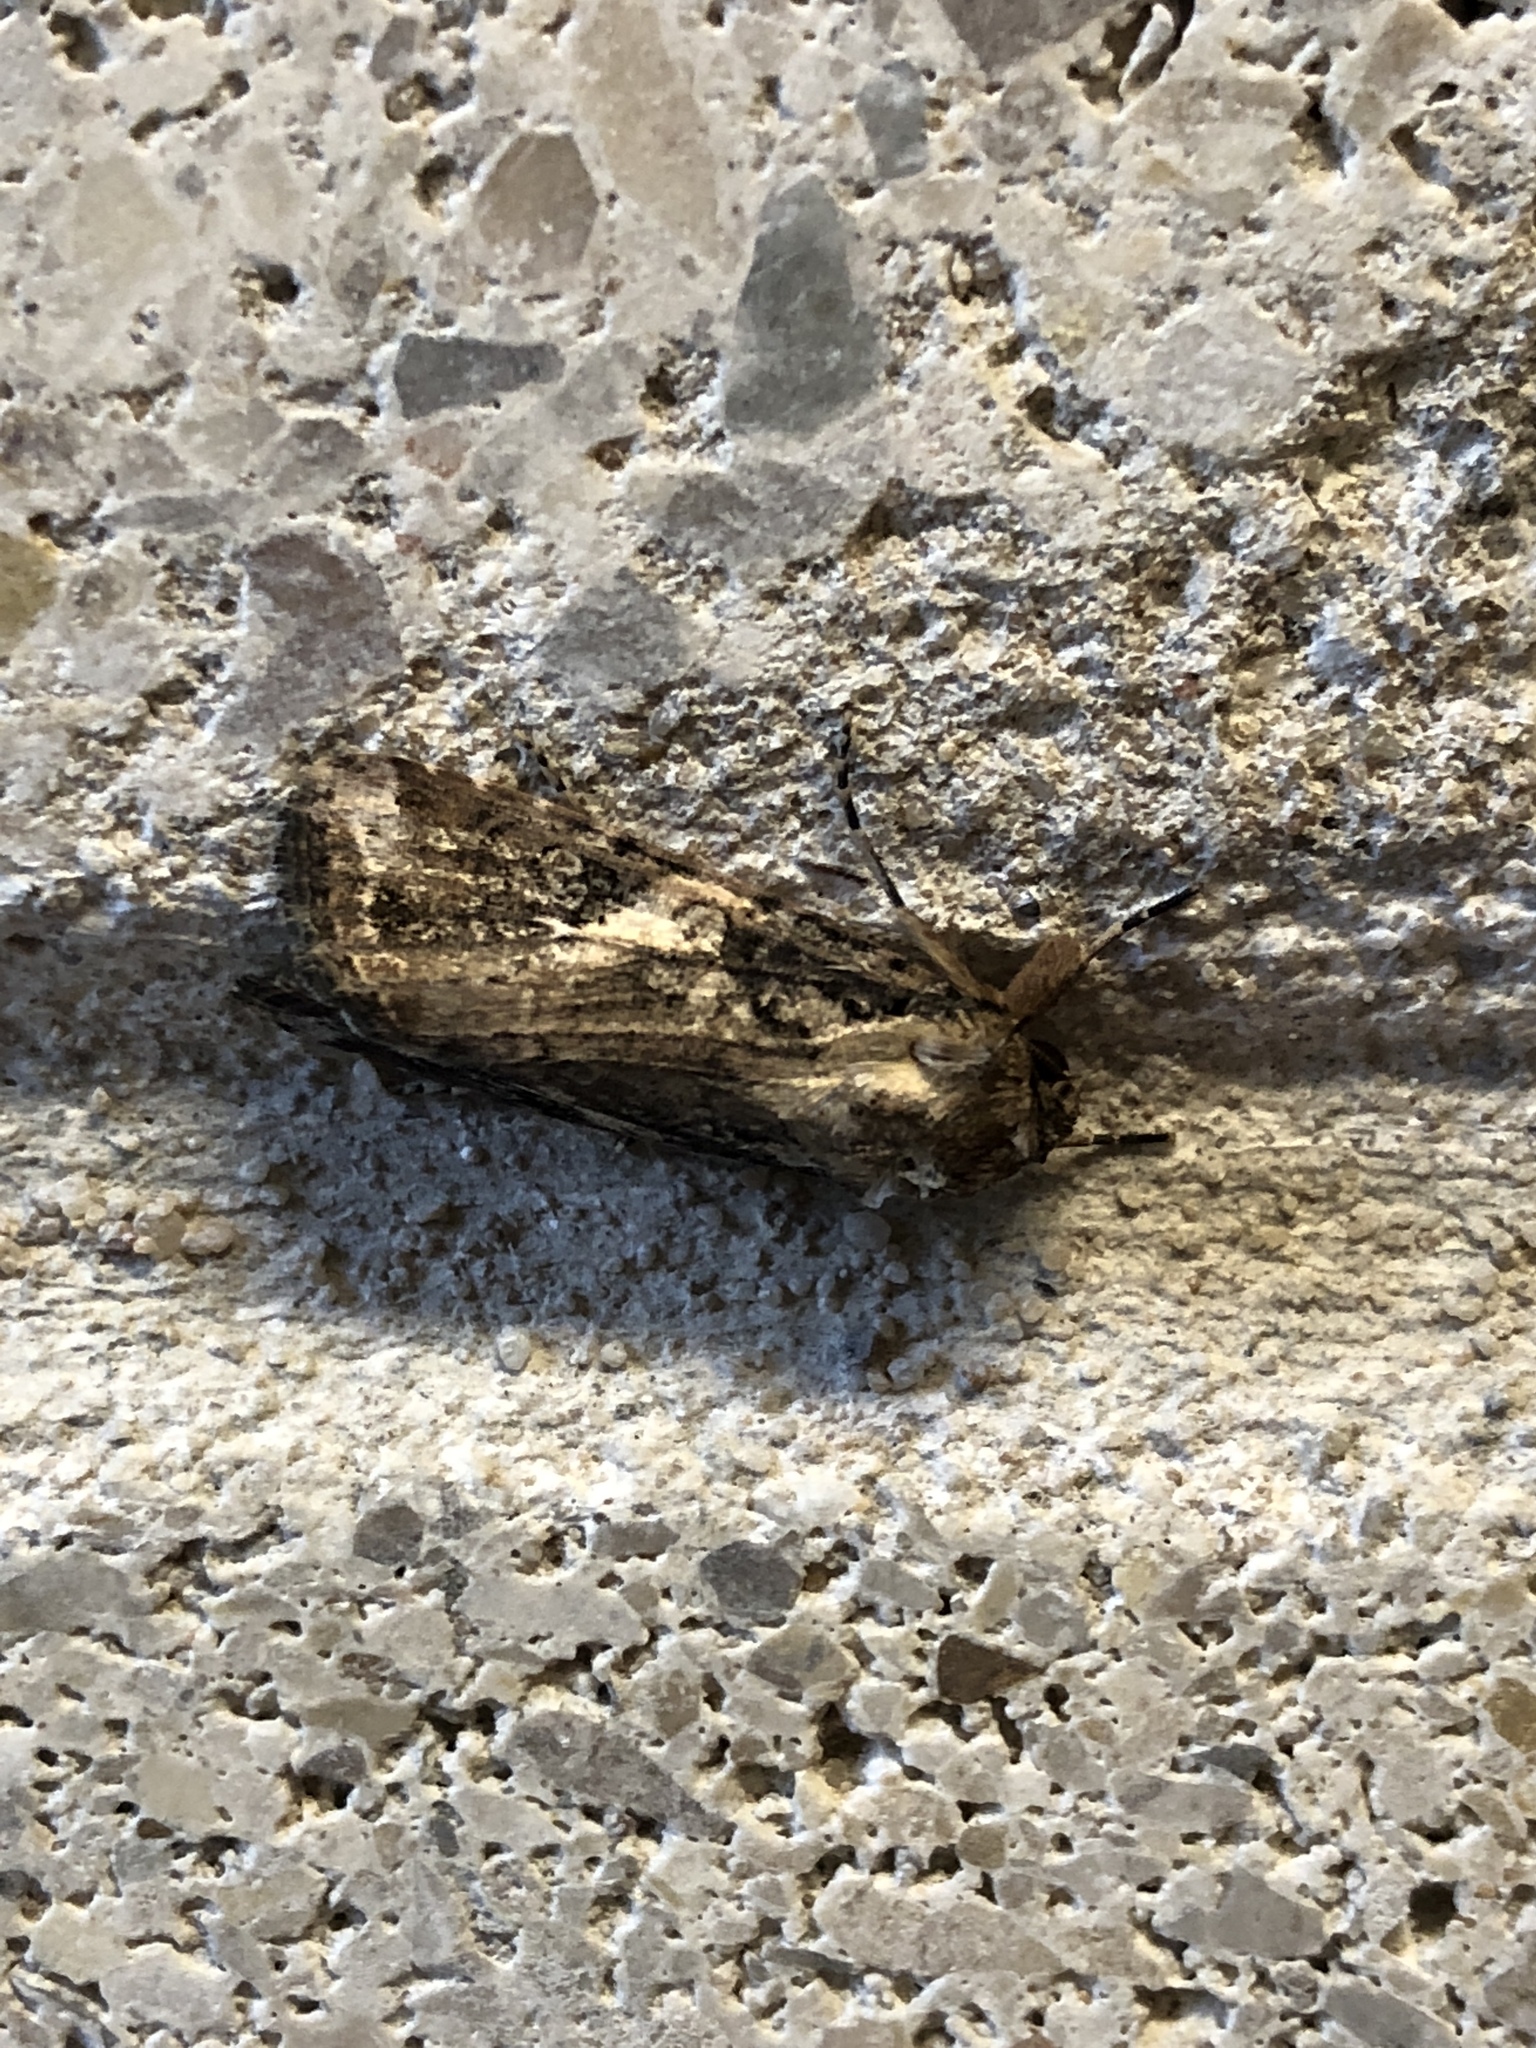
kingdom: Animalia
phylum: Arthropoda
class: Insecta
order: Lepidoptera
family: Noctuidae
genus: Spodoptera
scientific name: Spodoptera frugiperda
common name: Fall armyworm
